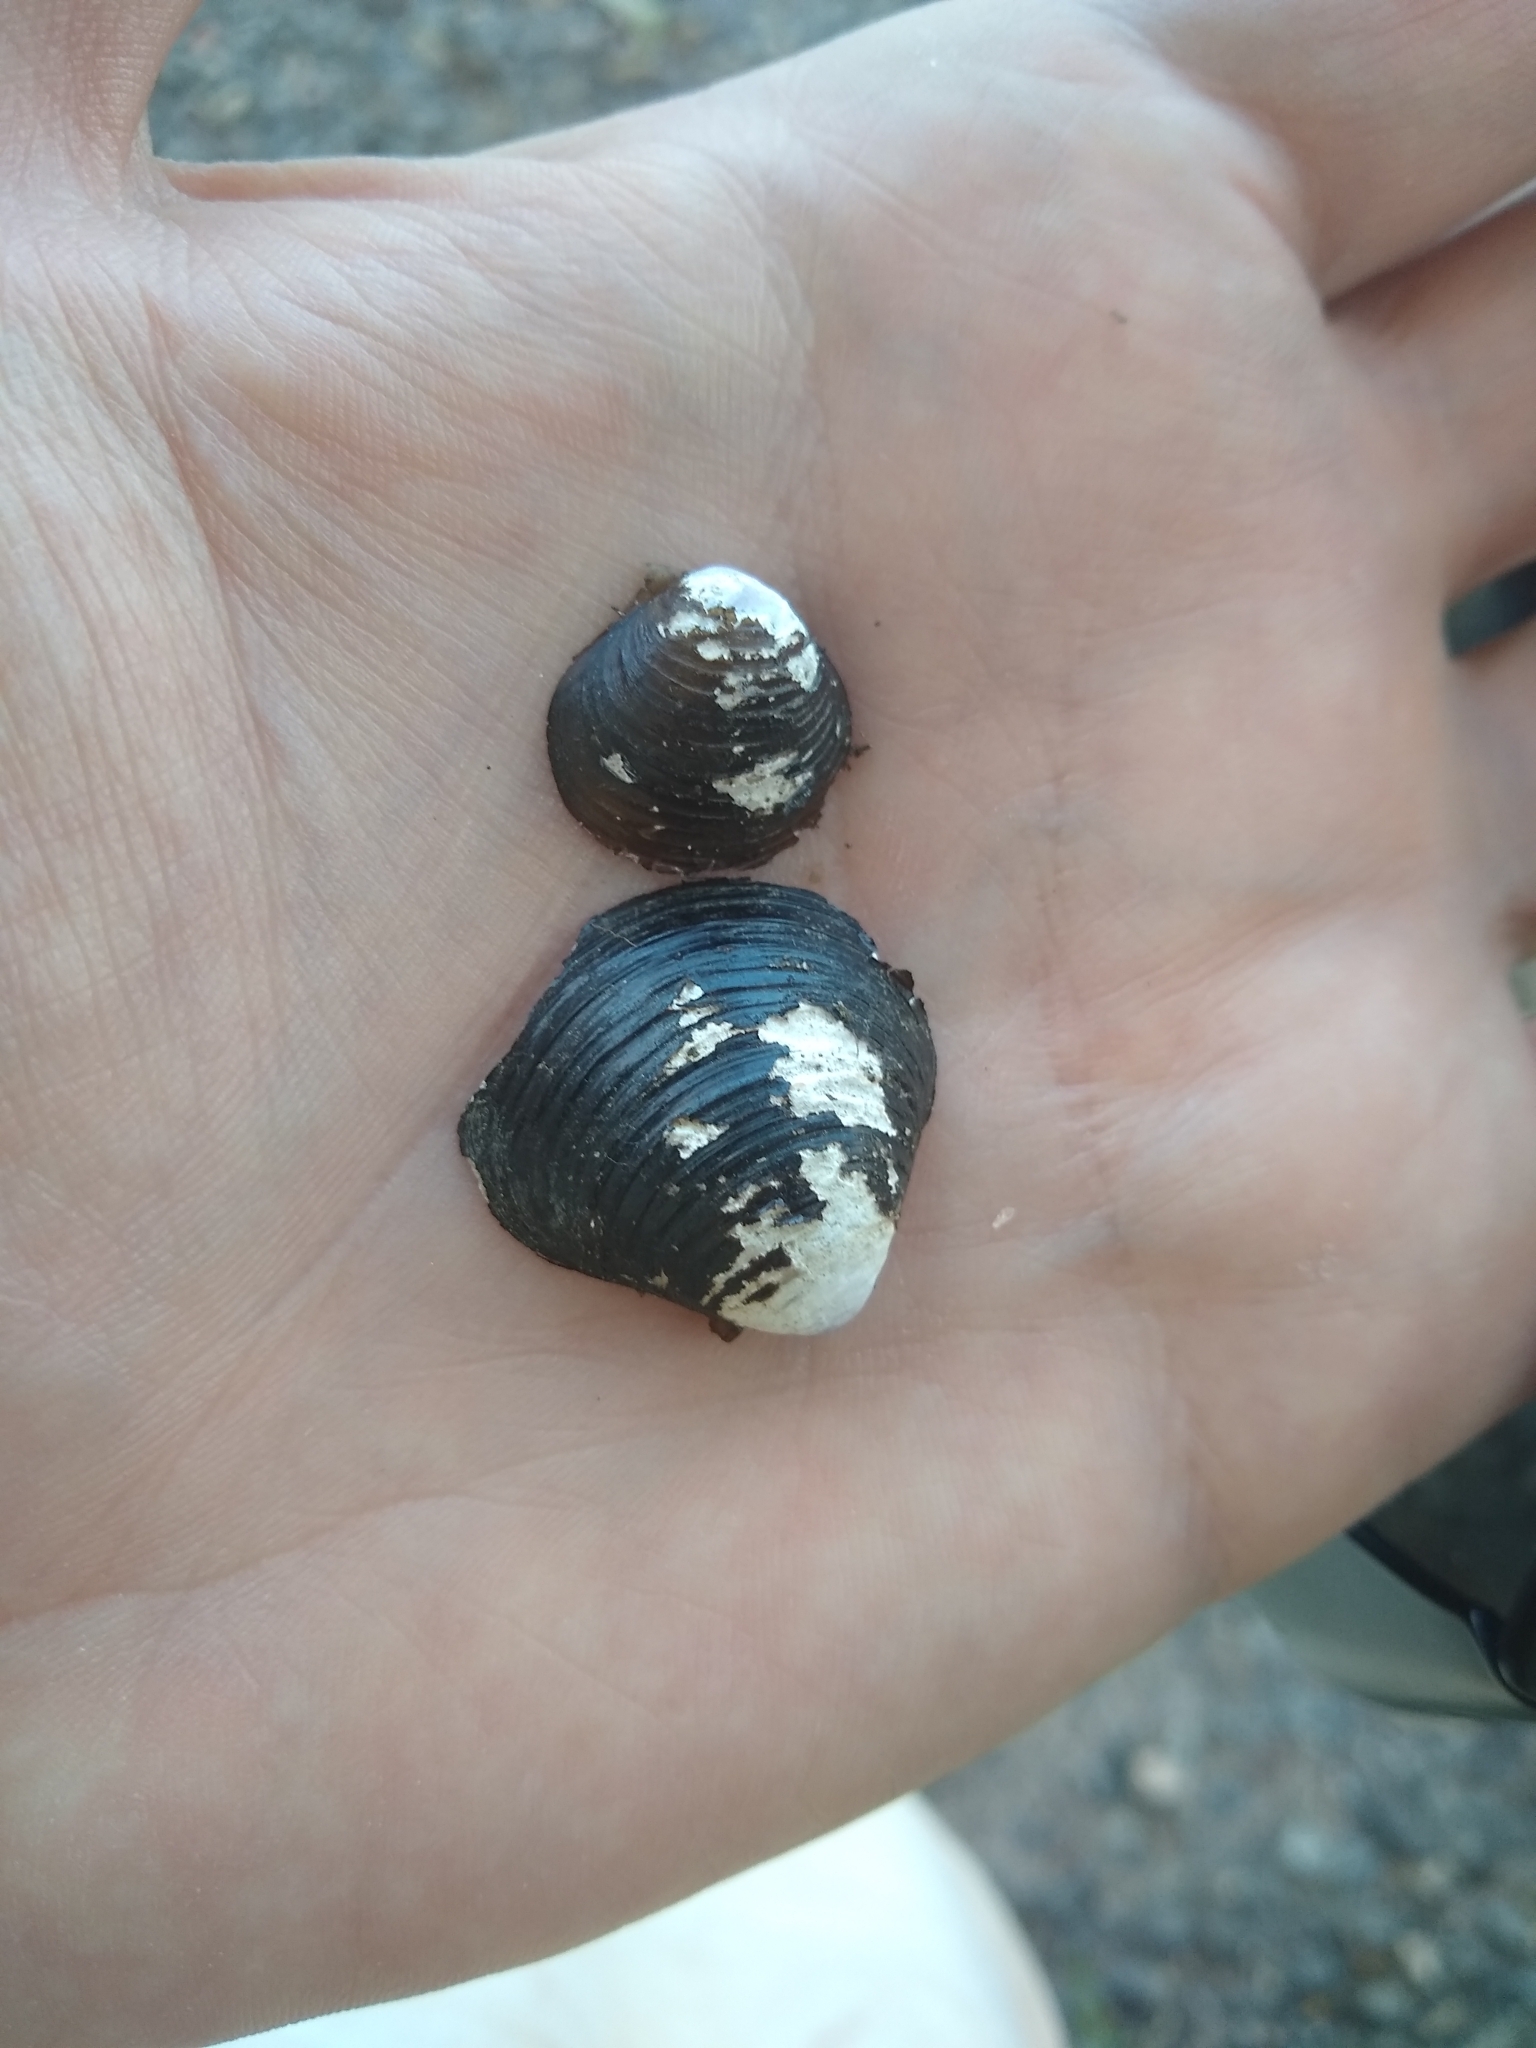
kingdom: Animalia
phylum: Mollusca
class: Bivalvia
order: Venerida
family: Cyrenidae
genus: Corbicula
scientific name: Corbicula fluminea
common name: Asian clam
